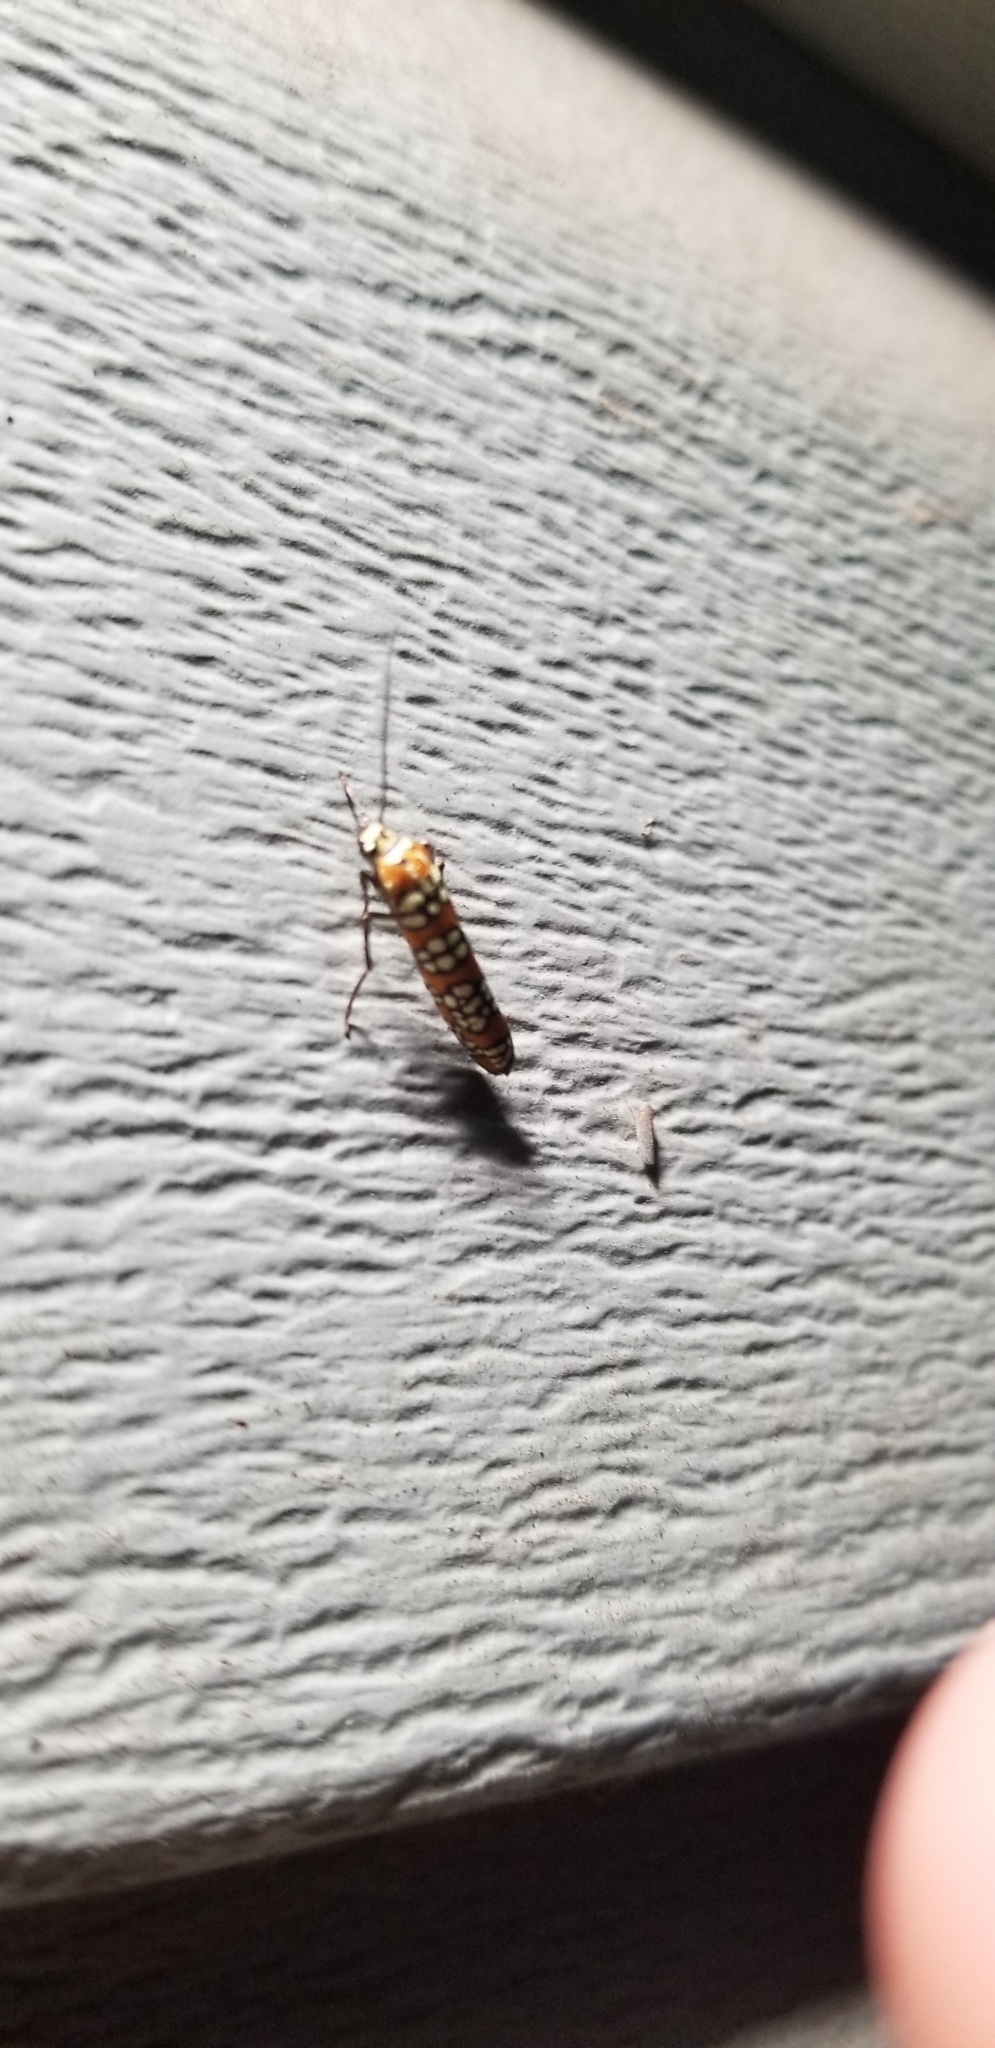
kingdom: Animalia
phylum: Arthropoda
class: Insecta
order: Lepidoptera
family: Attevidae
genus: Atteva
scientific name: Atteva punctella
